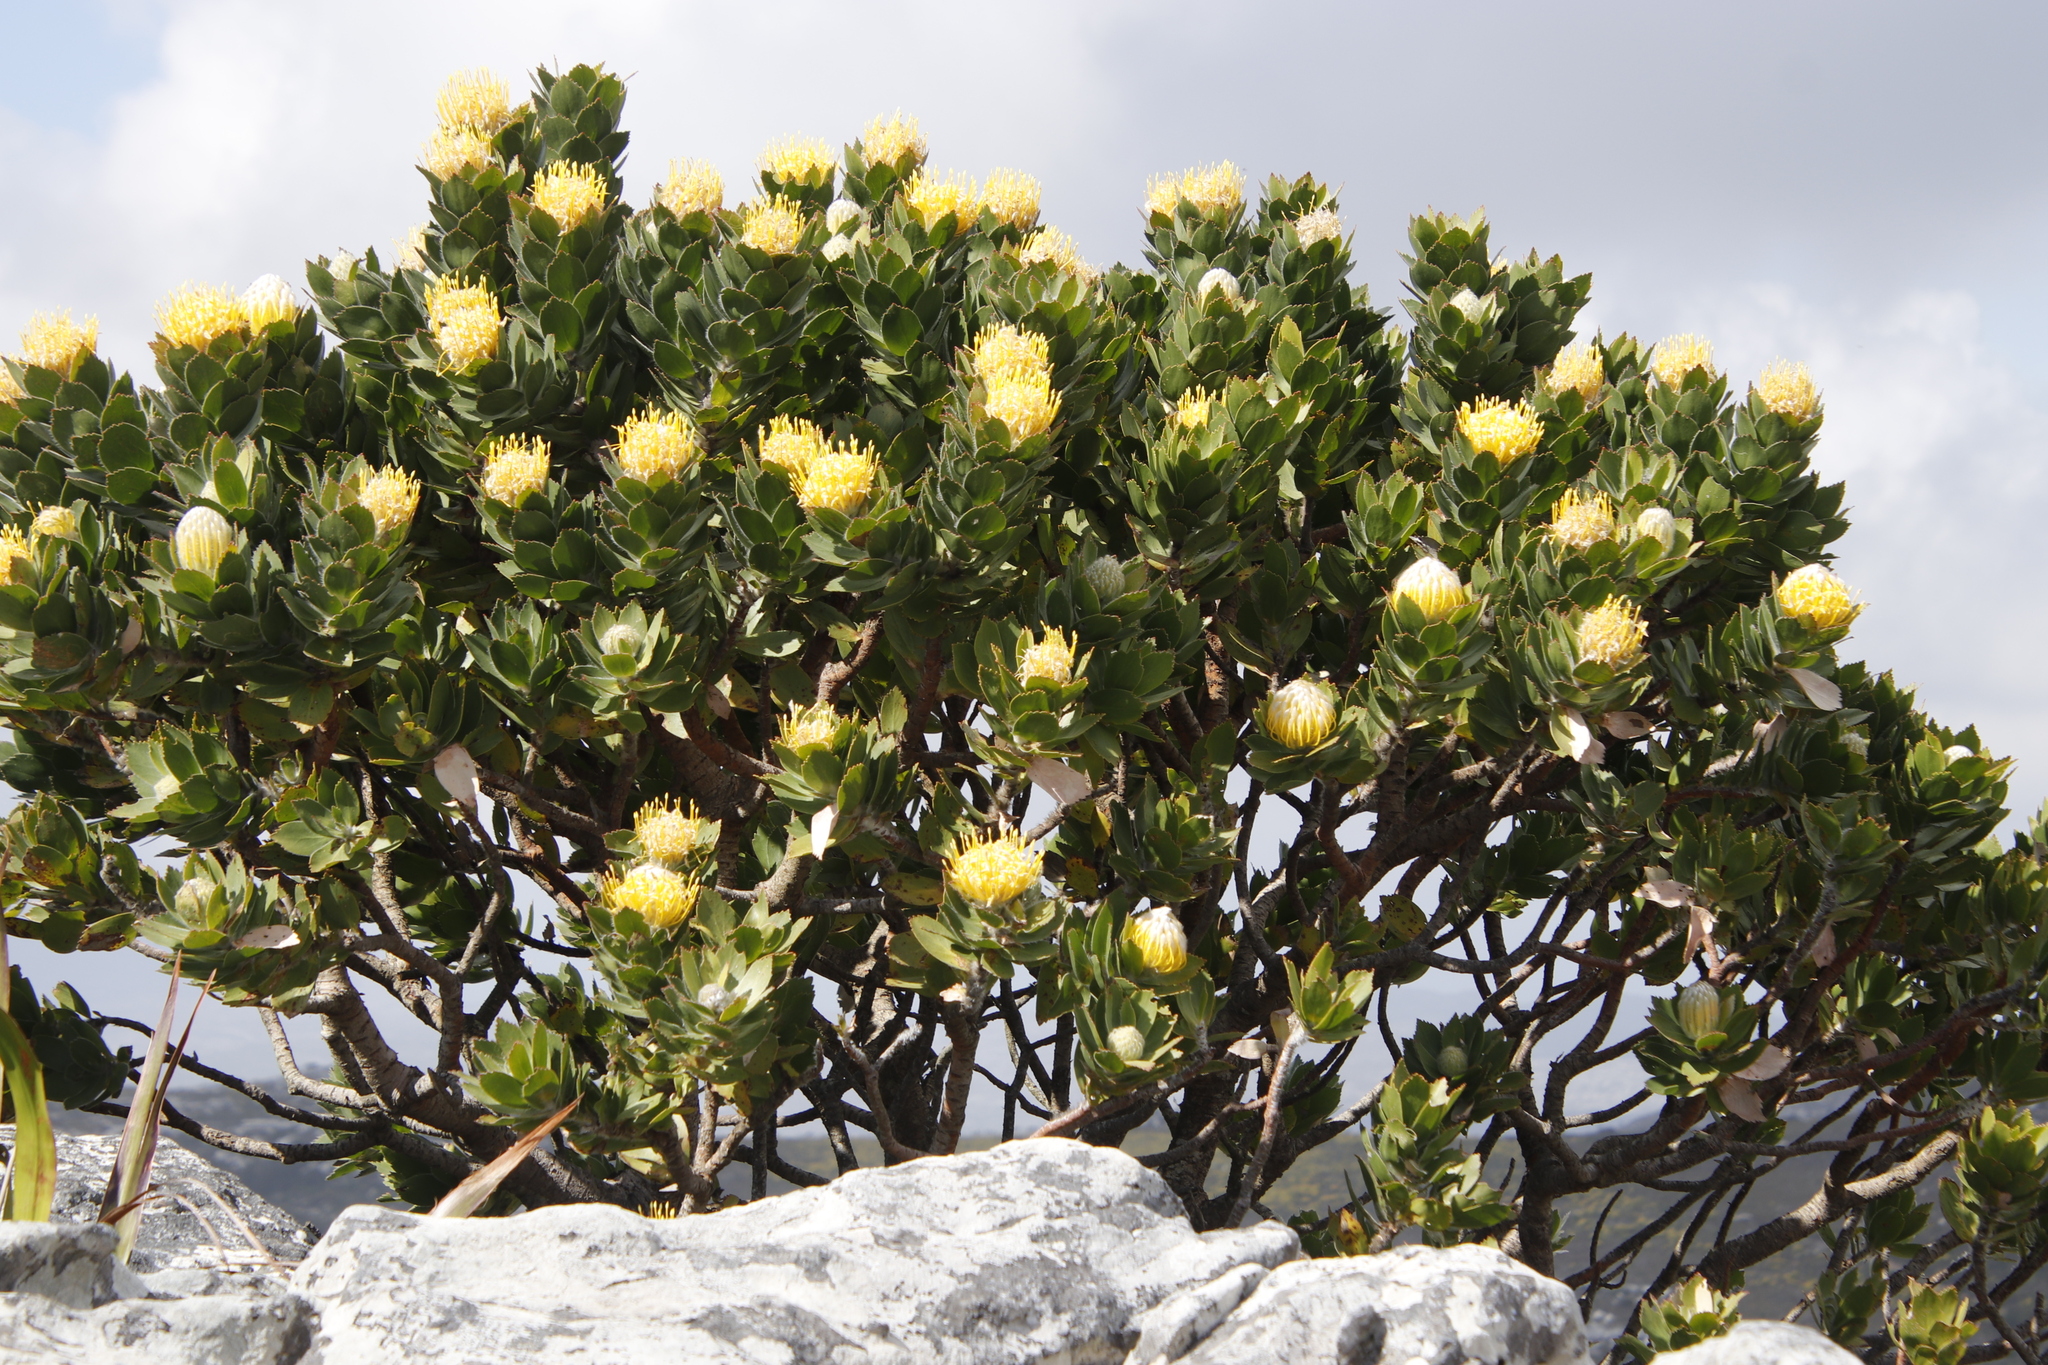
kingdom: Plantae
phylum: Tracheophyta
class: Magnoliopsida
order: Proteales
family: Proteaceae
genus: Leucospermum
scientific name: Leucospermum conocarpodendron
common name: Tree pincushion
